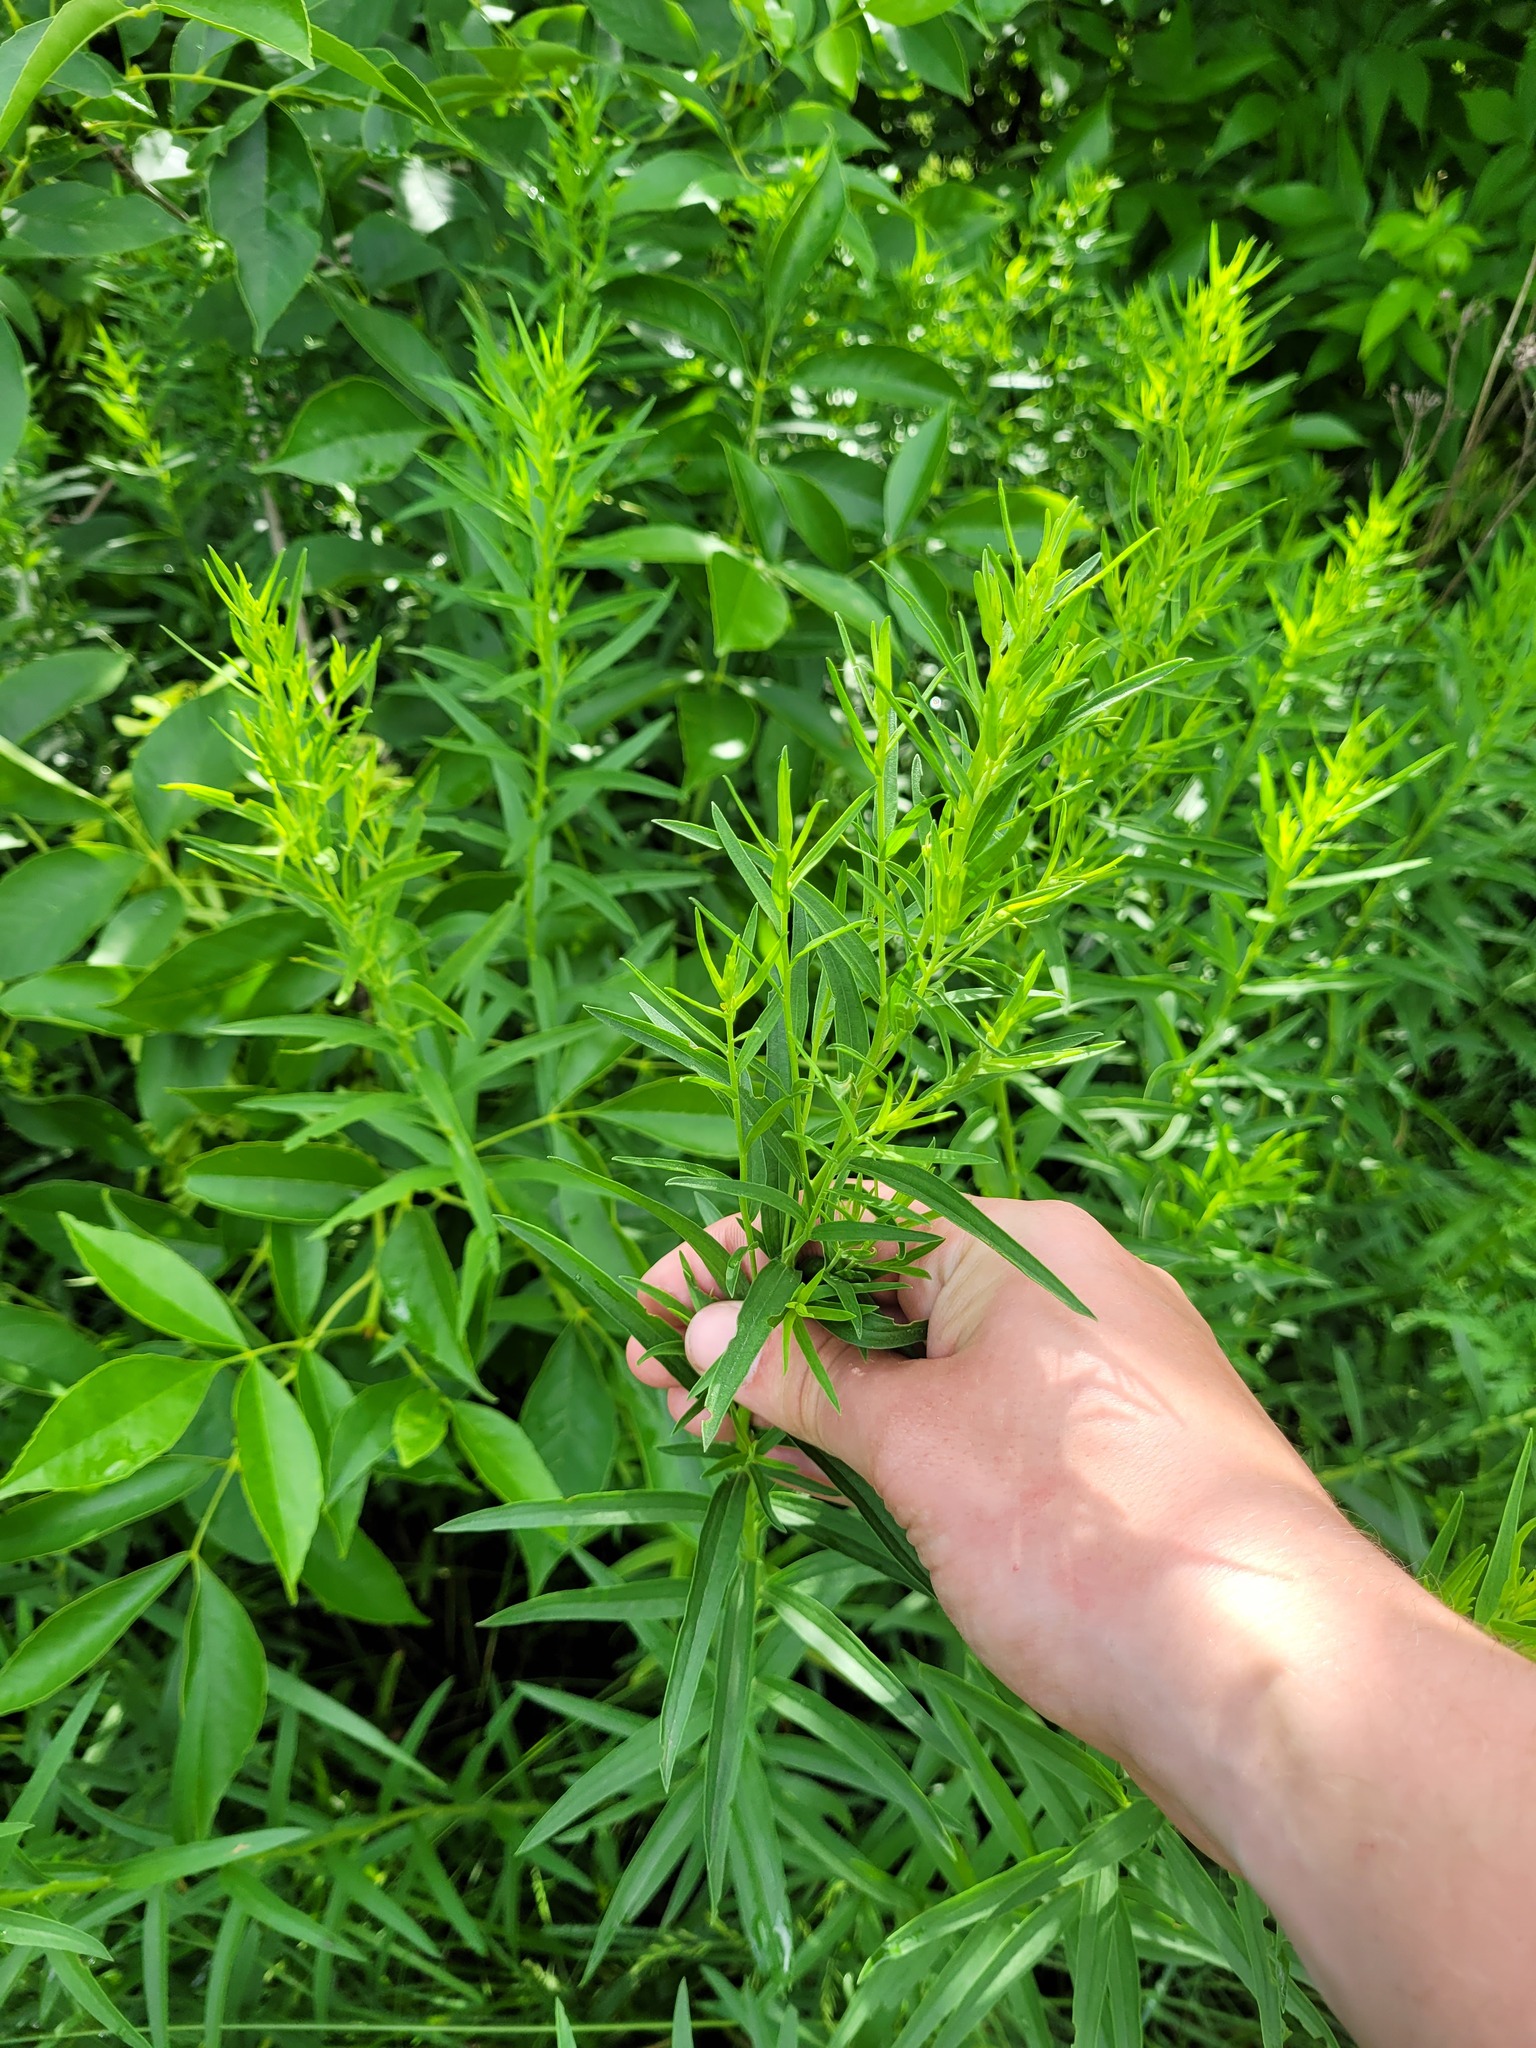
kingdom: Plantae
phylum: Tracheophyta
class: Magnoliopsida
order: Asterales
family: Asteraceae
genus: Galatella
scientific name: Galatella sedifolia
